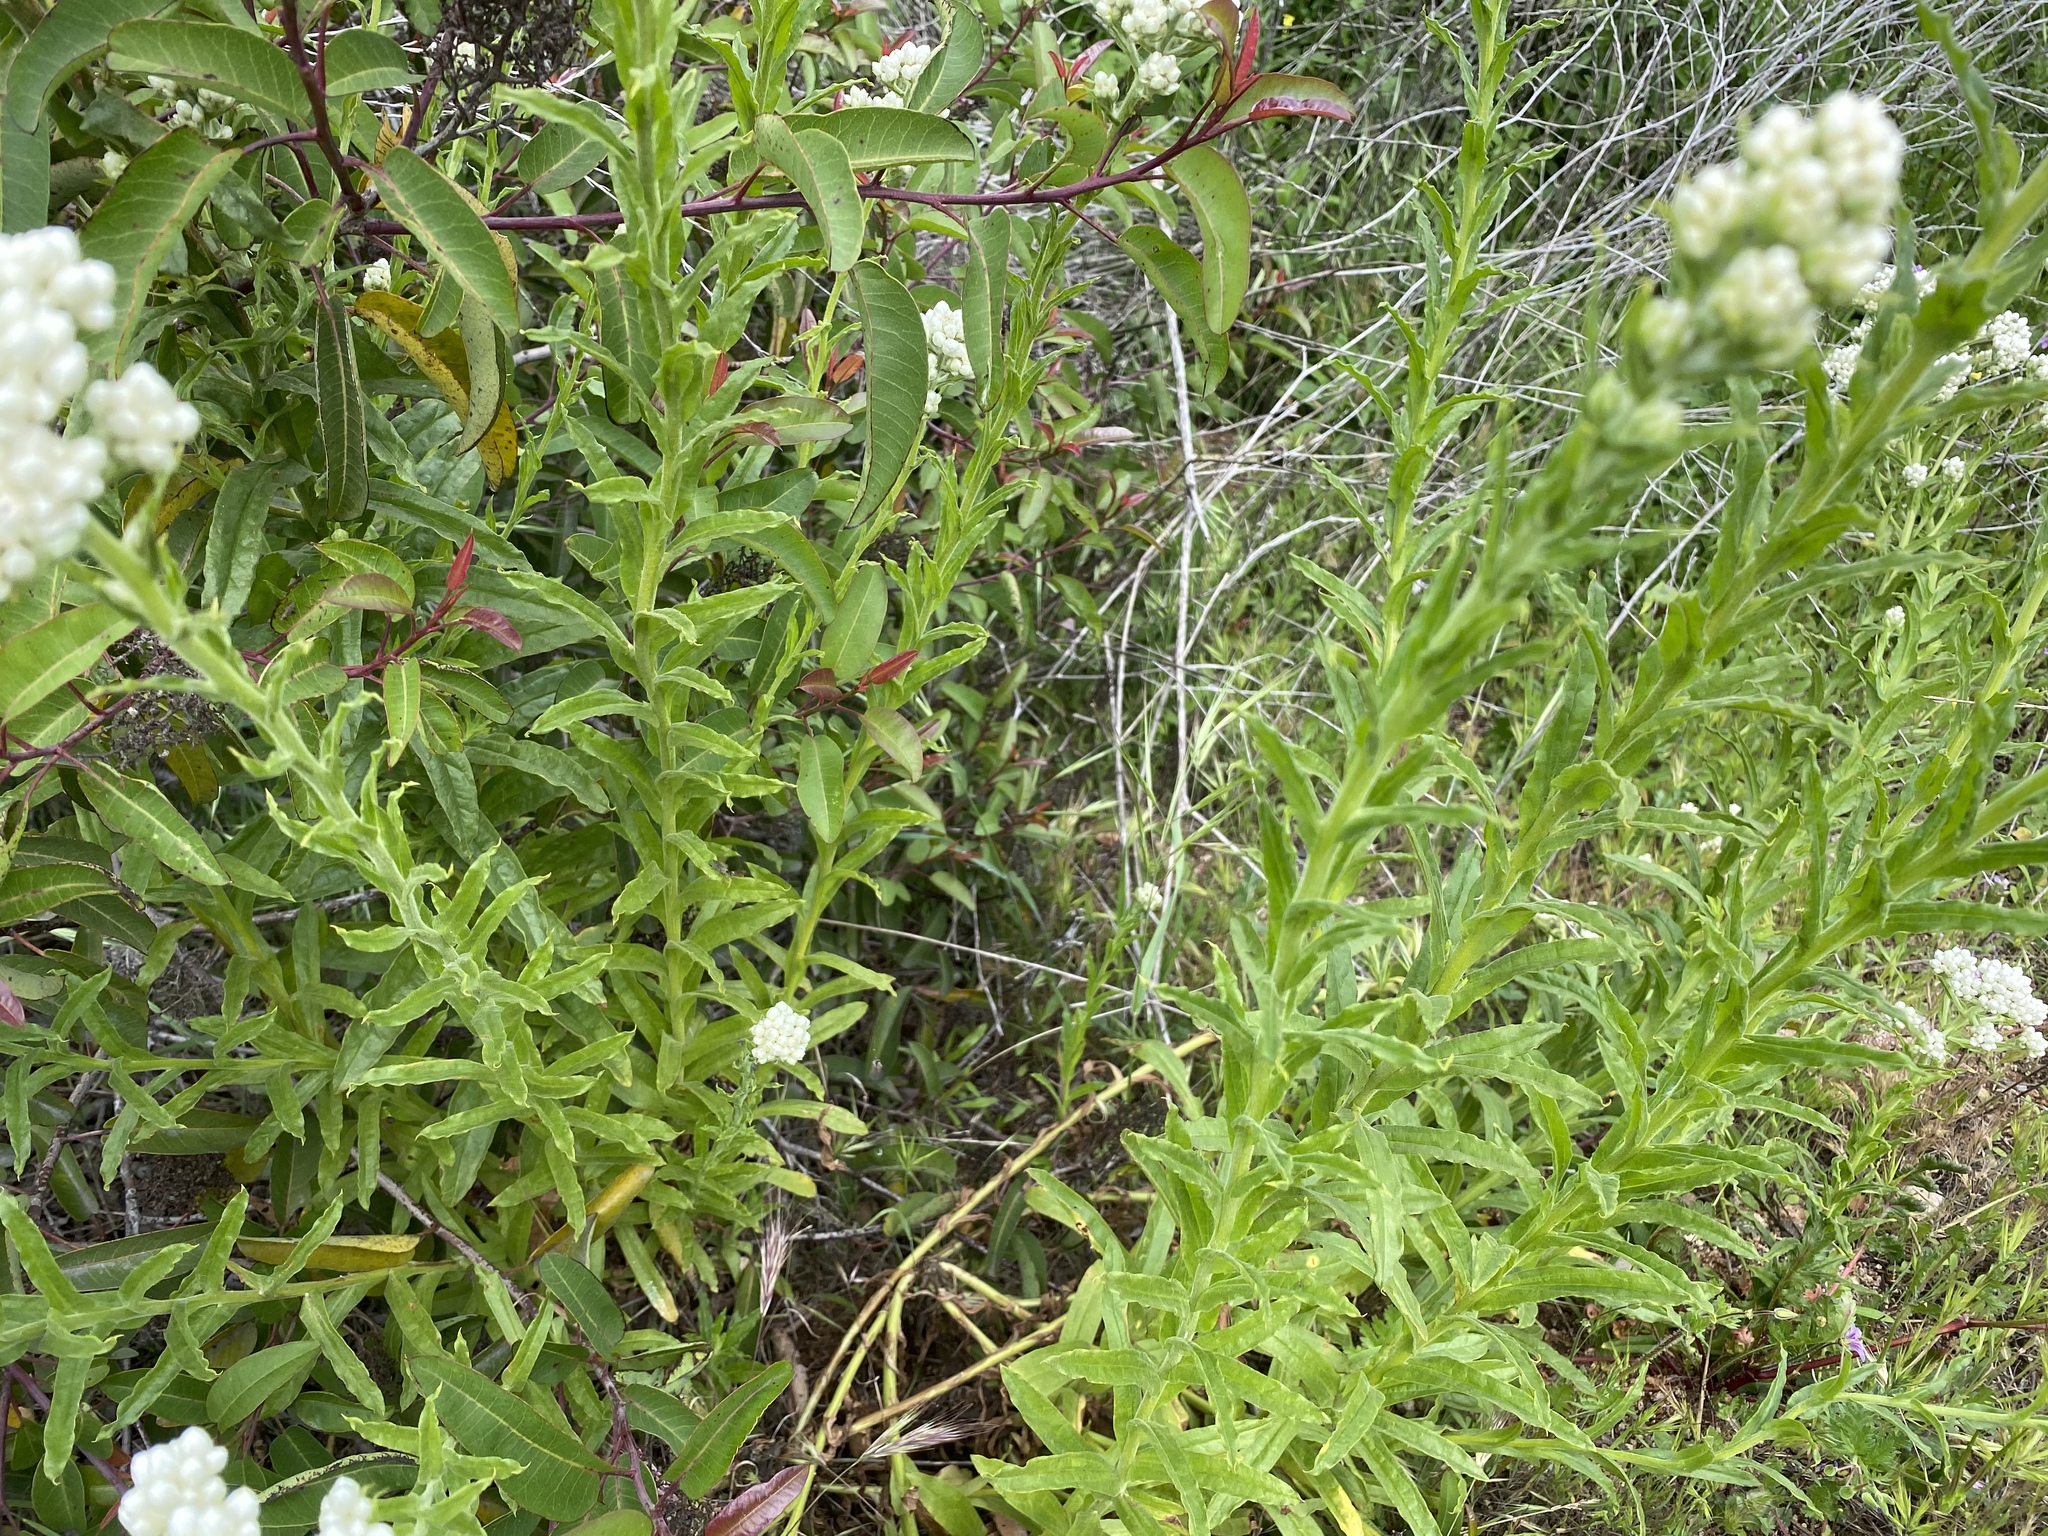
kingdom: Plantae
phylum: Tracheophyta
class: Magnoliopsida
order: Asterales
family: Asteraceae
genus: Pseudognaphalium
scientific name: Pseudognaphalium californicum
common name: California rabbit-tobacco
